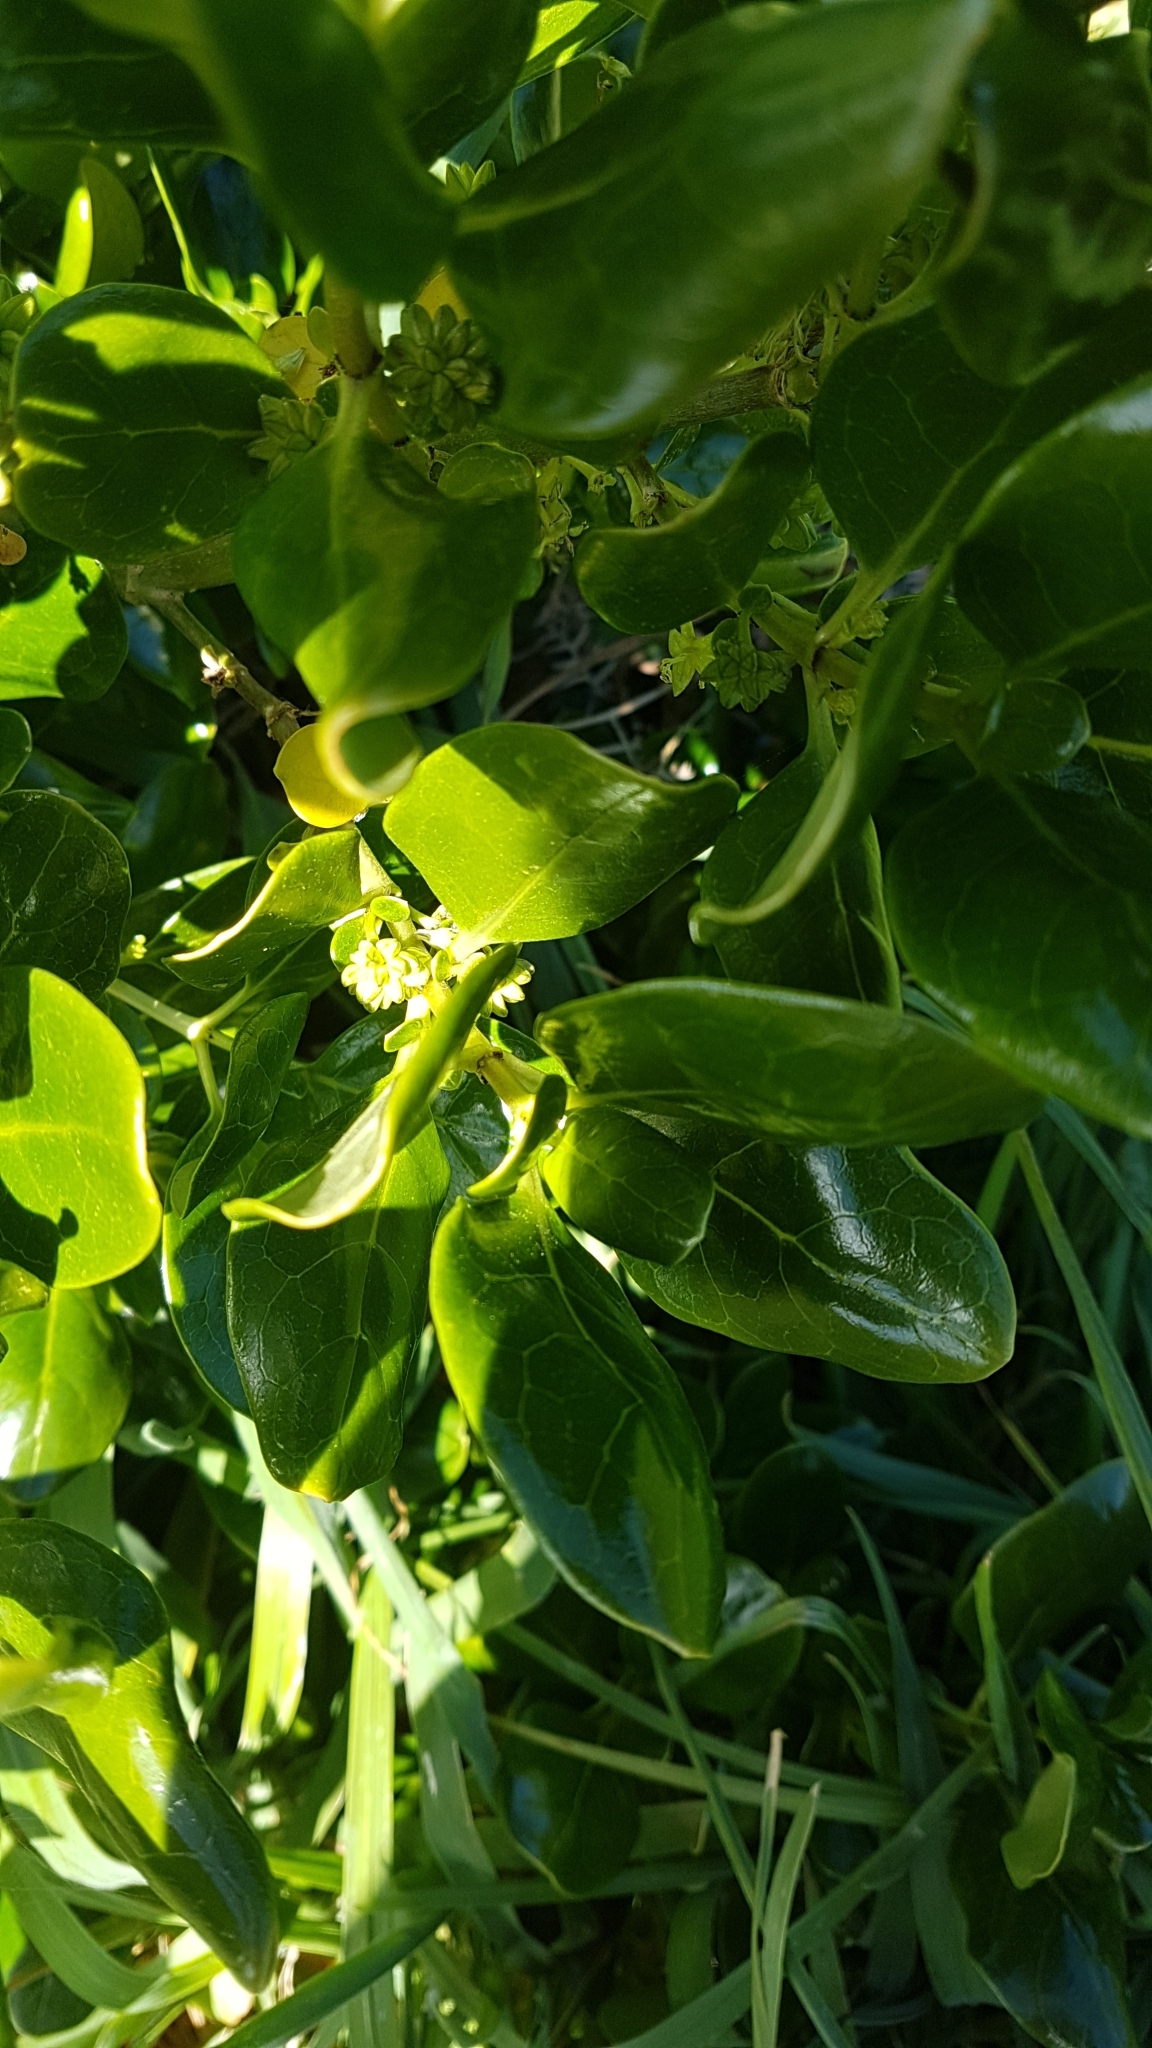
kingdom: Plantae
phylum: Tracheophyta
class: Magnoliopsida
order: Gentianales
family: Rubiaceae
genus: Coprosma
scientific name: Coprosma repens
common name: Tree bedstraw
